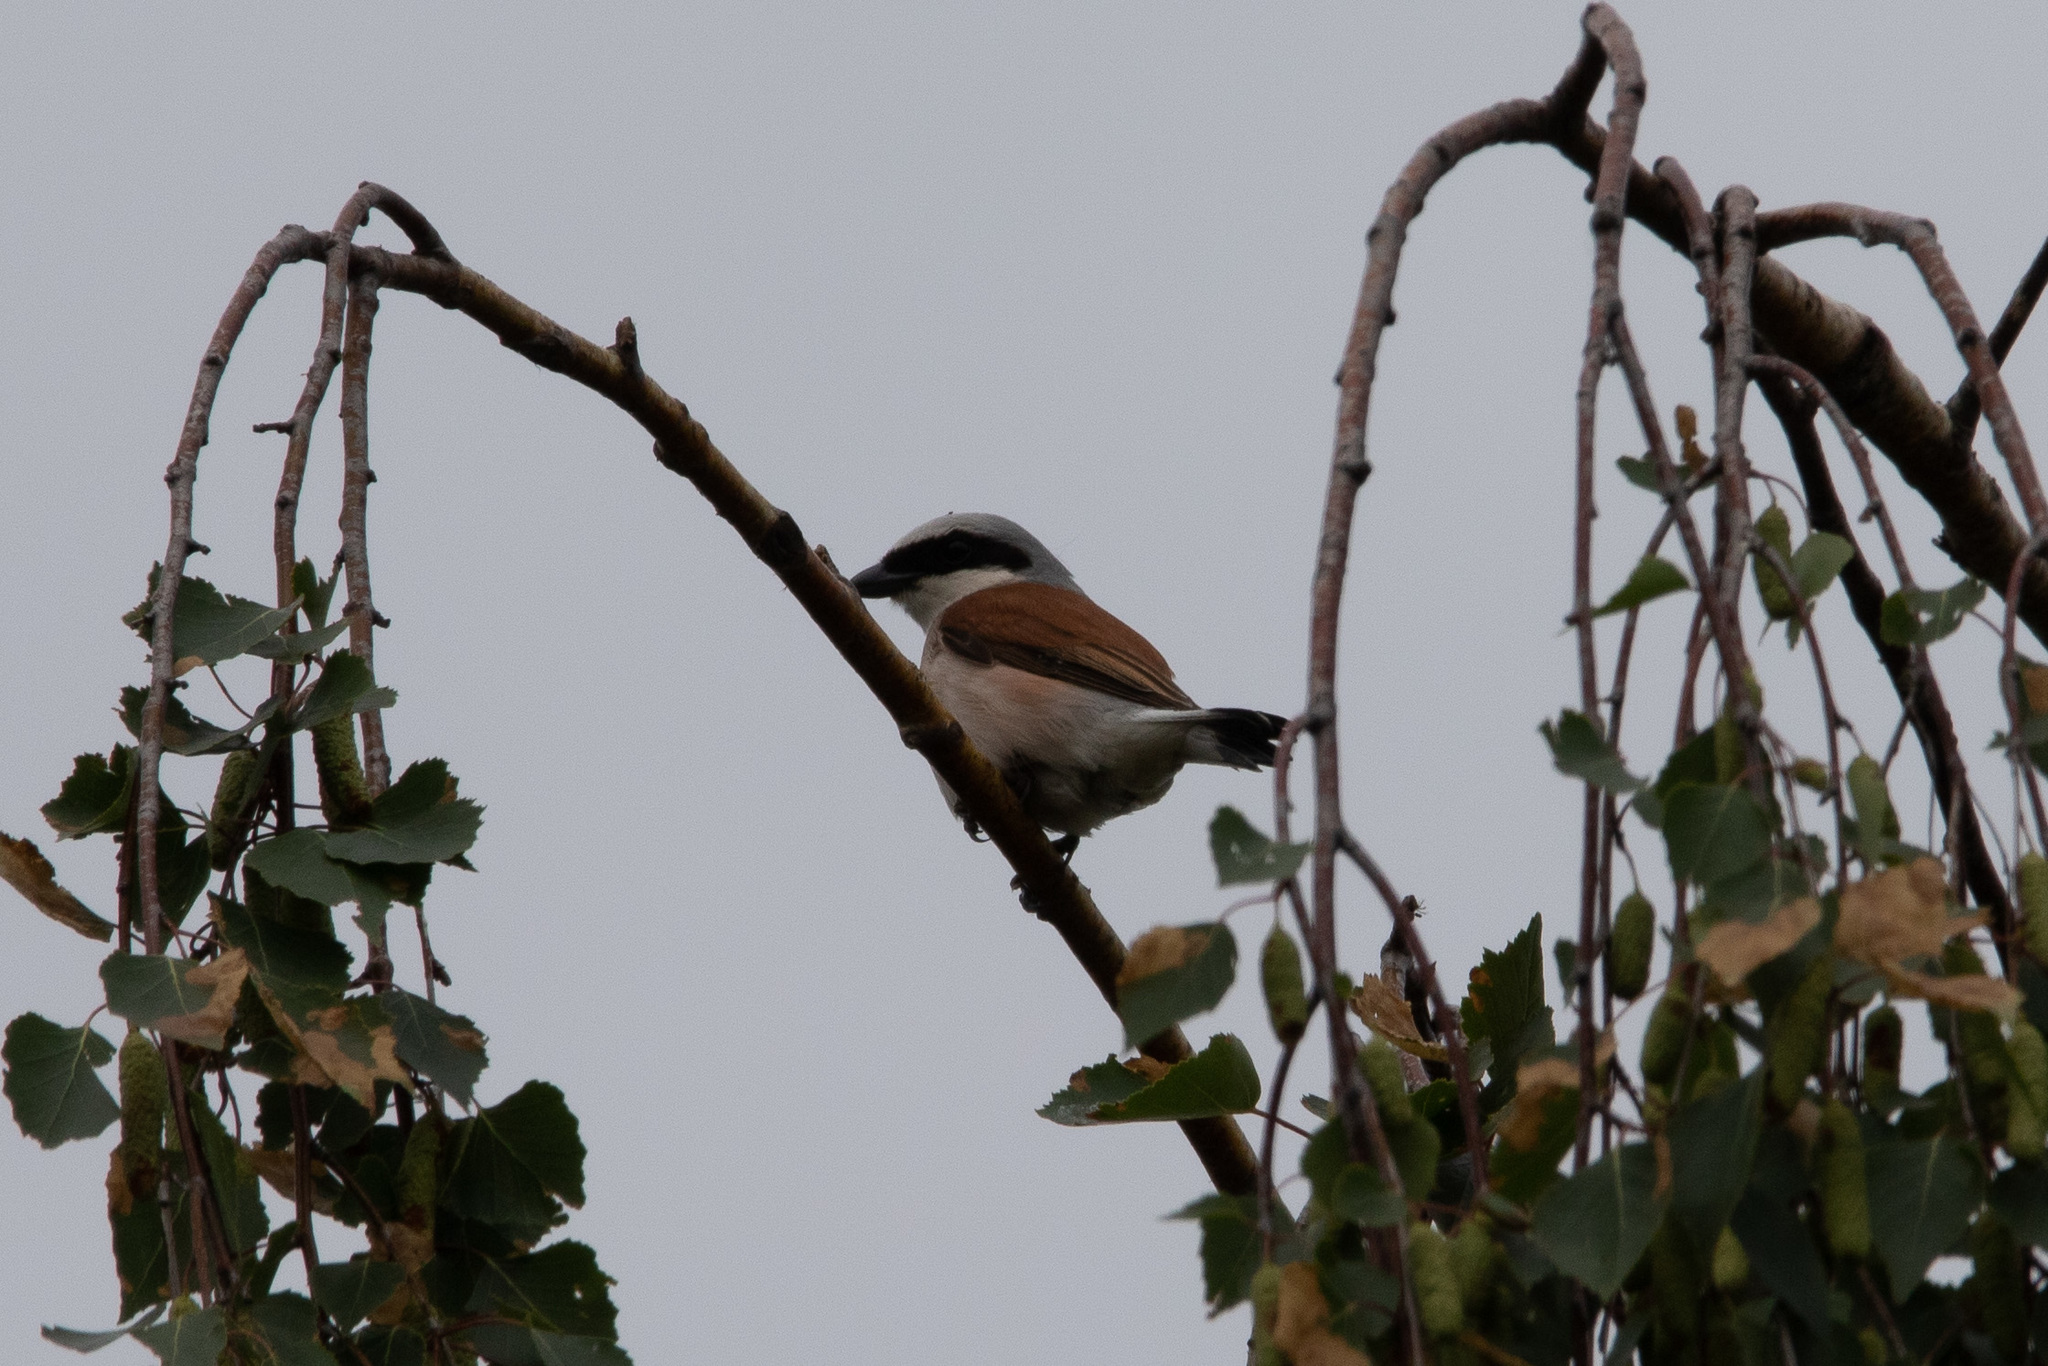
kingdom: Animalia
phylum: Chordata
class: Aves
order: Passeriformes
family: Laniidae
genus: Lanius
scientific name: Lanius collurio
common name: Red-backed shrike
